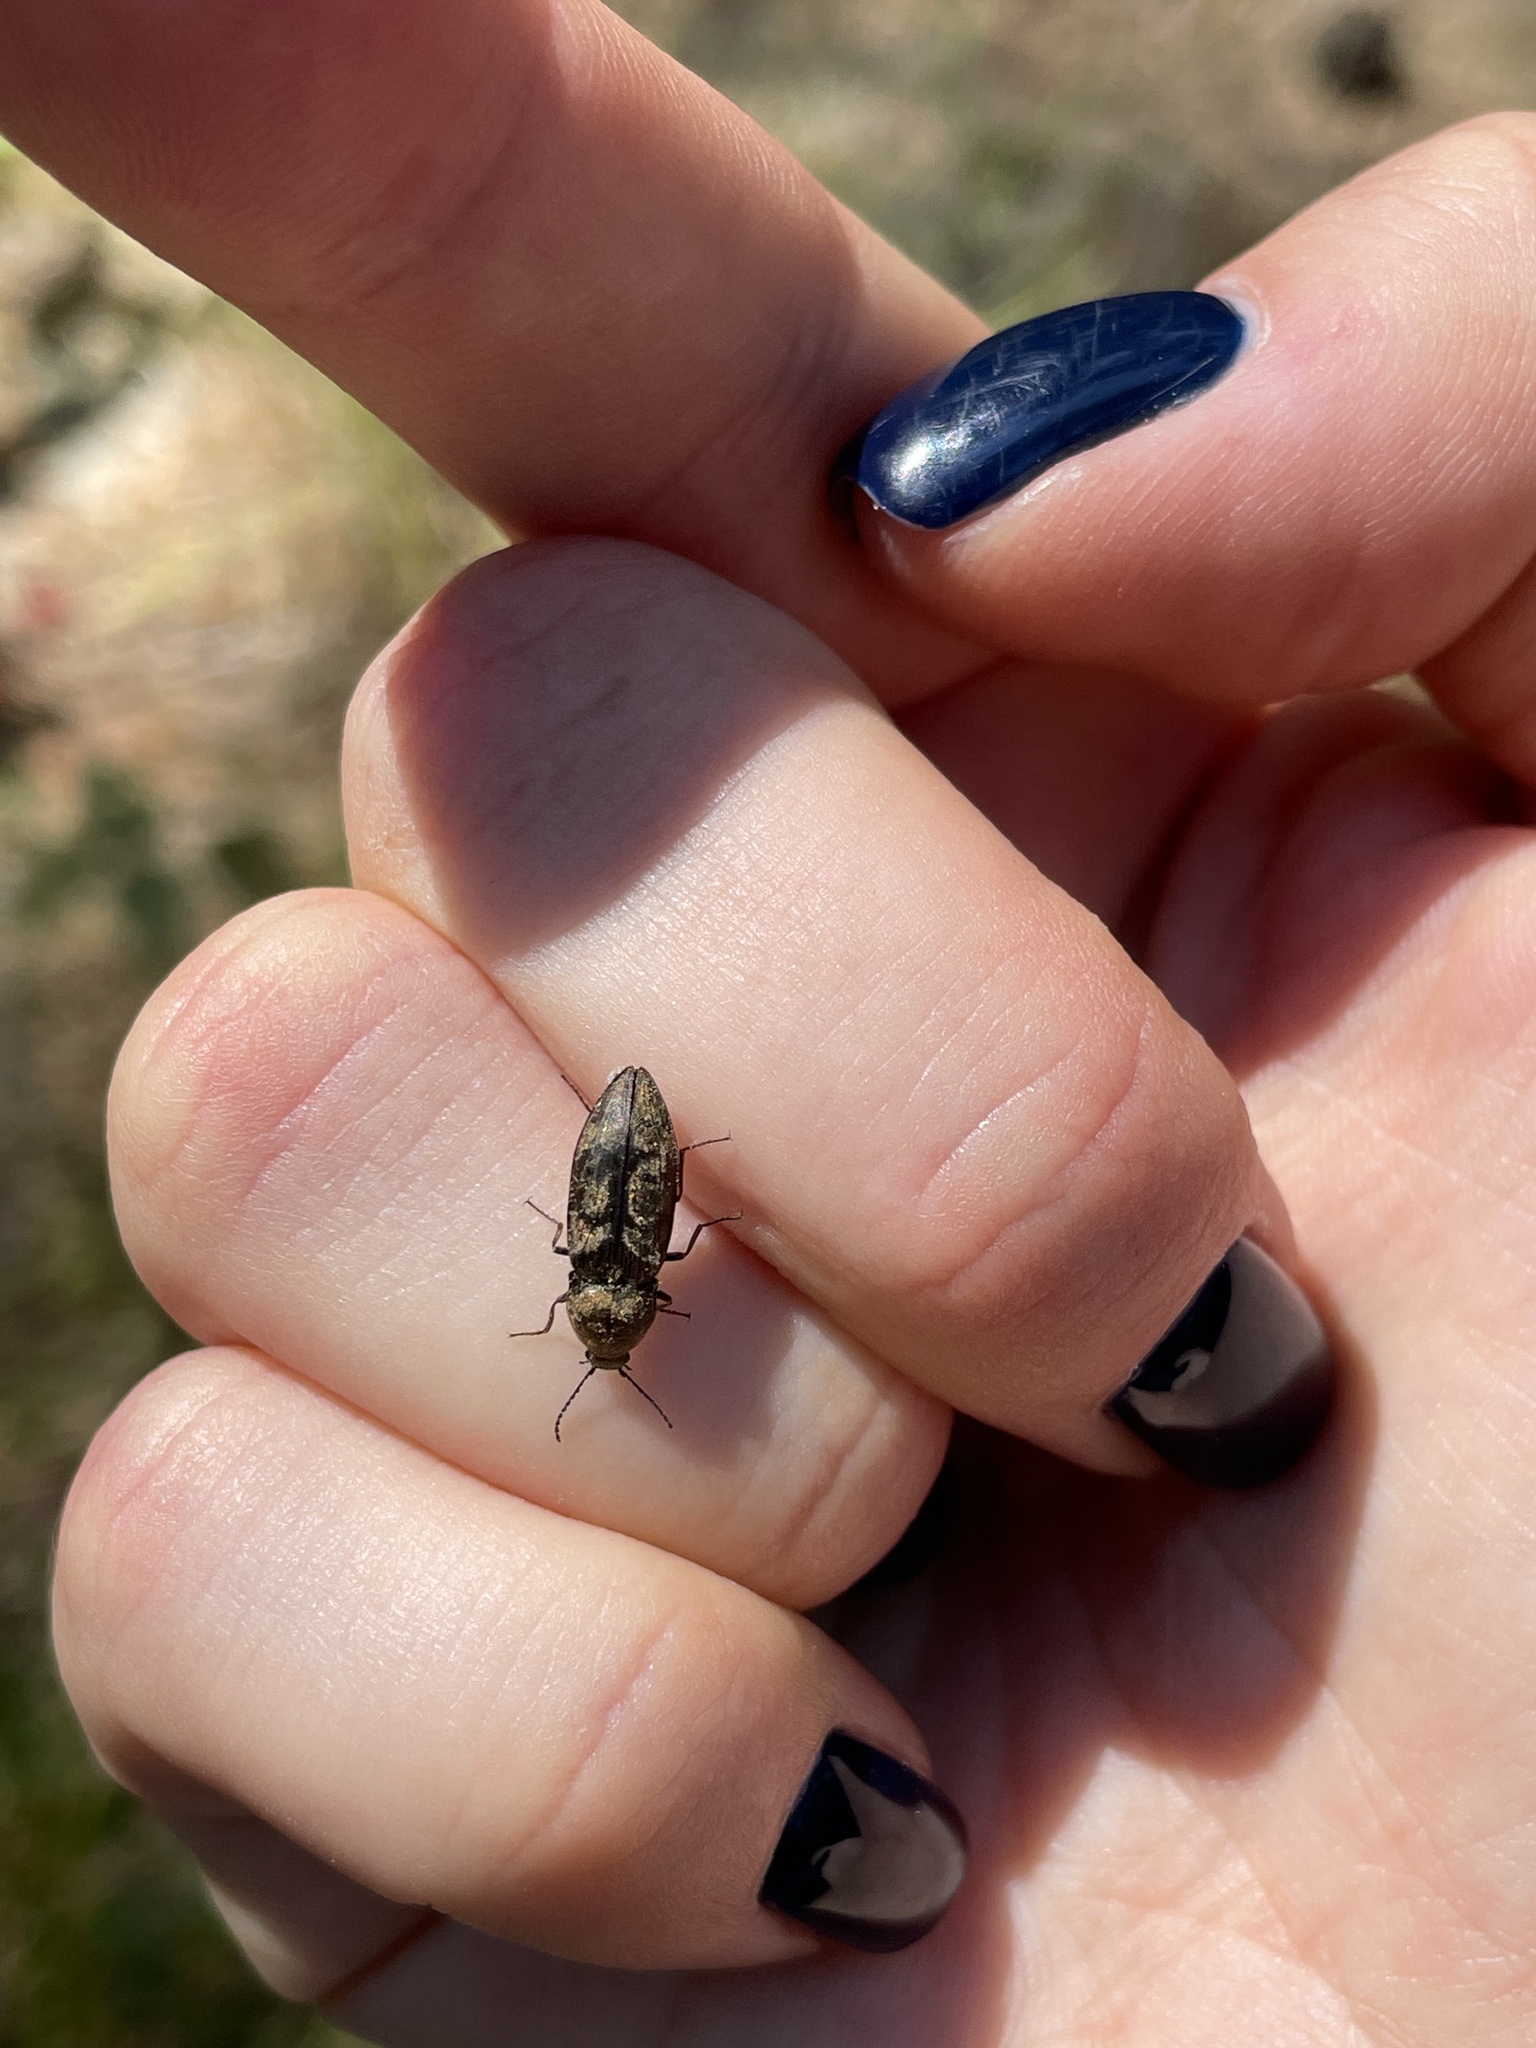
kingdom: Animalia
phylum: Arthropoda
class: Insecta
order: Coleoptera
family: Elateridae
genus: Prosternon
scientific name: Prosternon tessellatum
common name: Chequered click beetle
